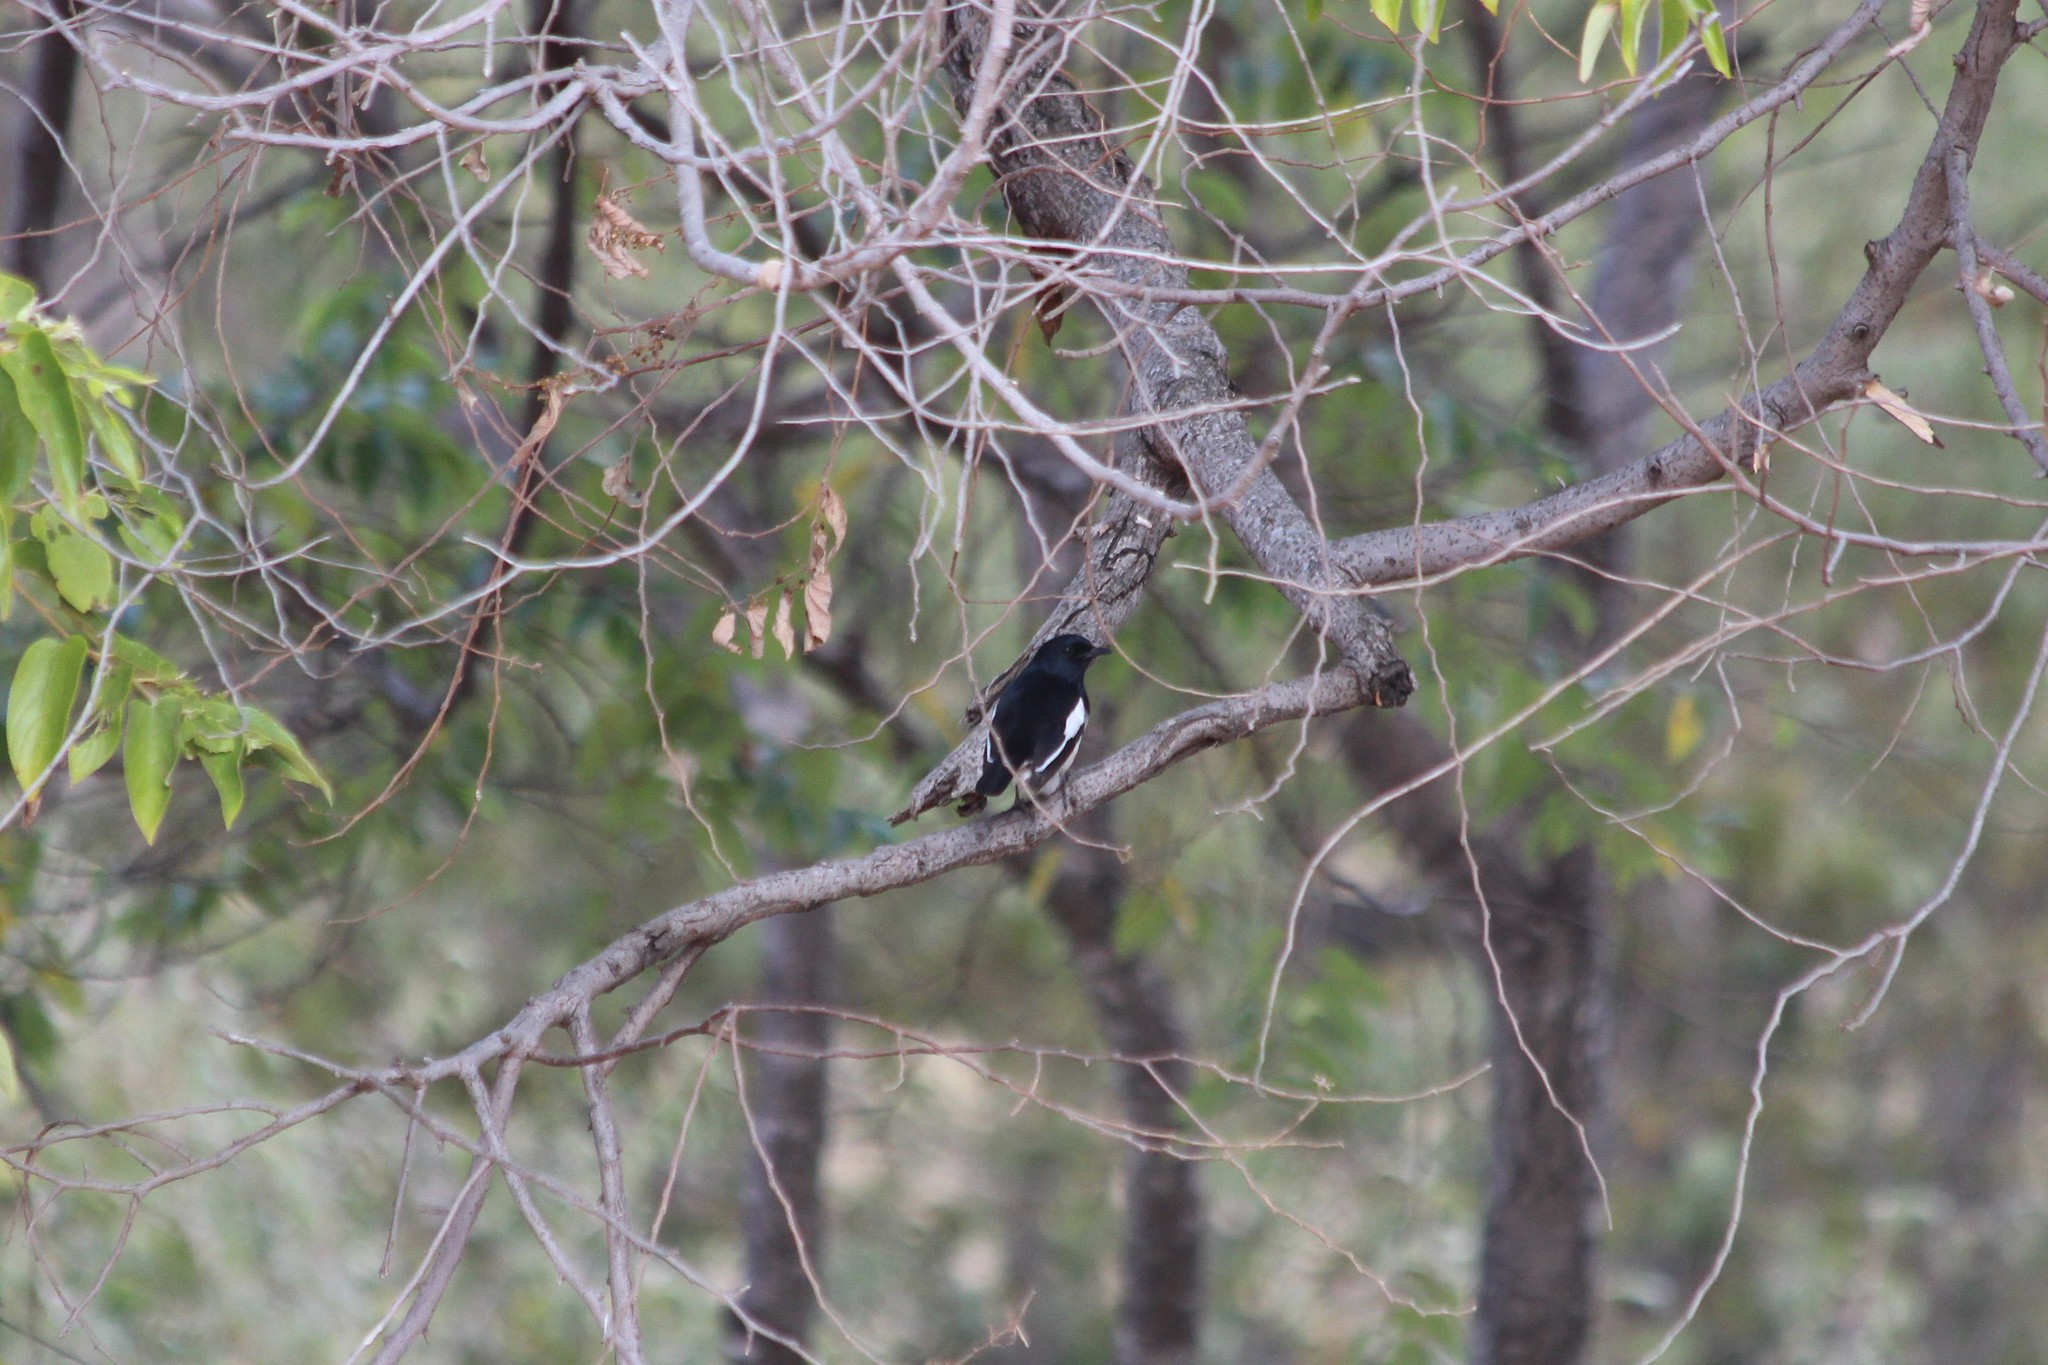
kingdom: Animalia
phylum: Chordata
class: Aves
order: Passeriformes
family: Muscicapidae
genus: Copsychus
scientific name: Copsychus albospecularis
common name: Madagascar magpie-robin
